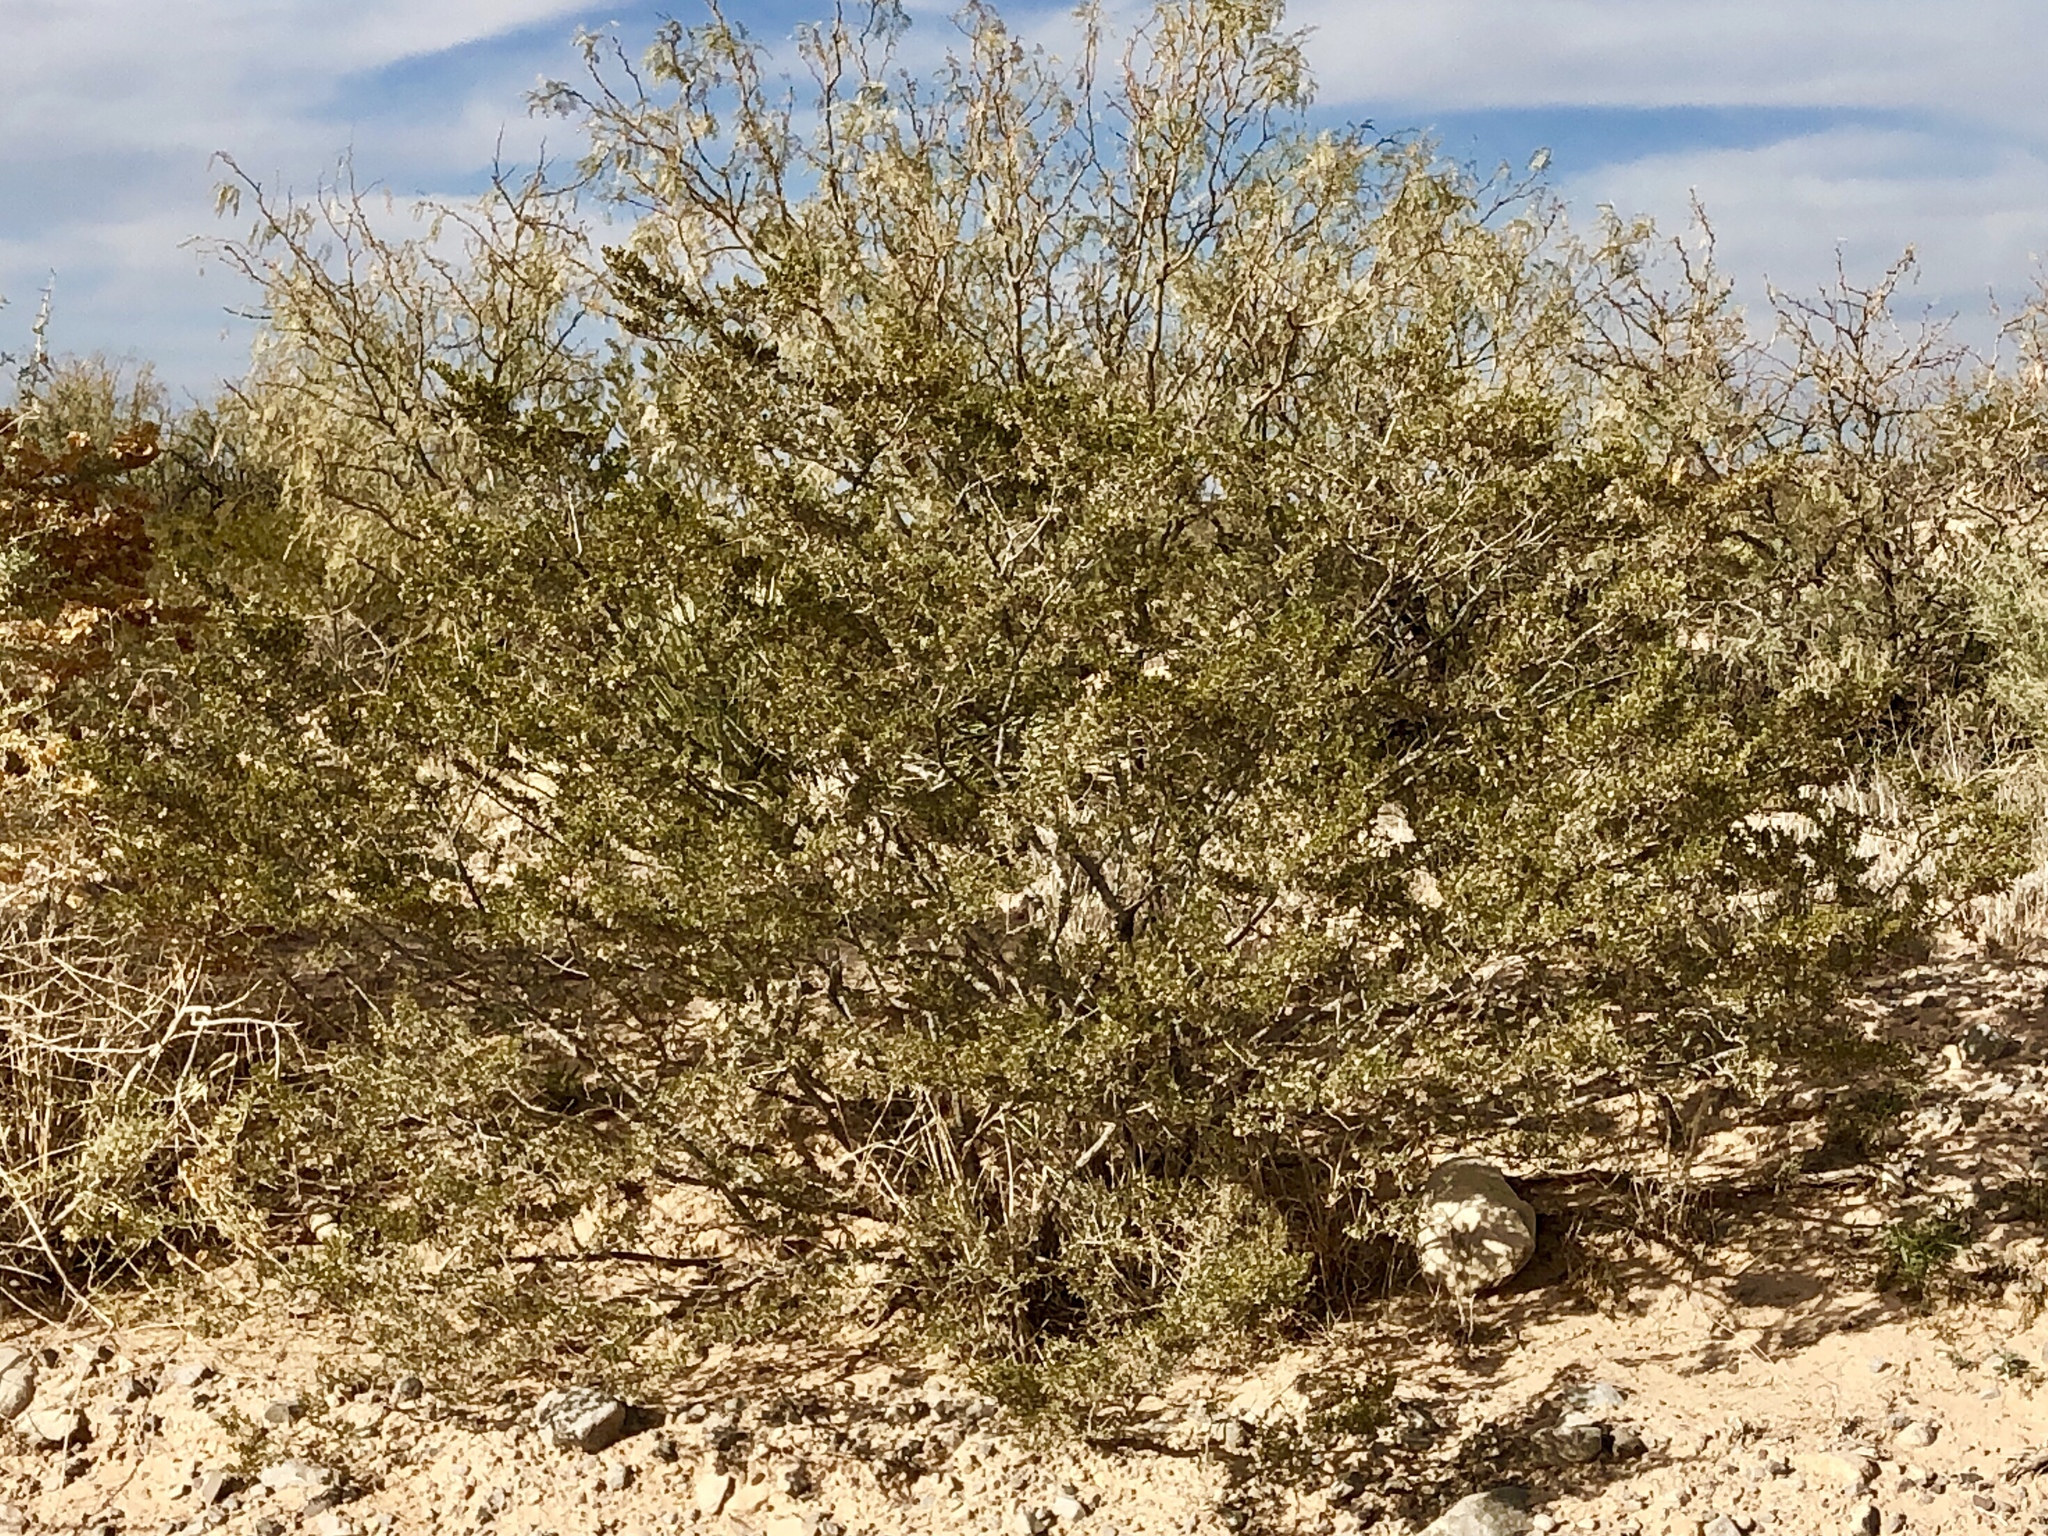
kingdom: Plantae
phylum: Tracheophyta
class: Magnoliopsida
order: Zygophyllales
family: Zygophyllaceae
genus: Larrea
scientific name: Larrea tridentata
